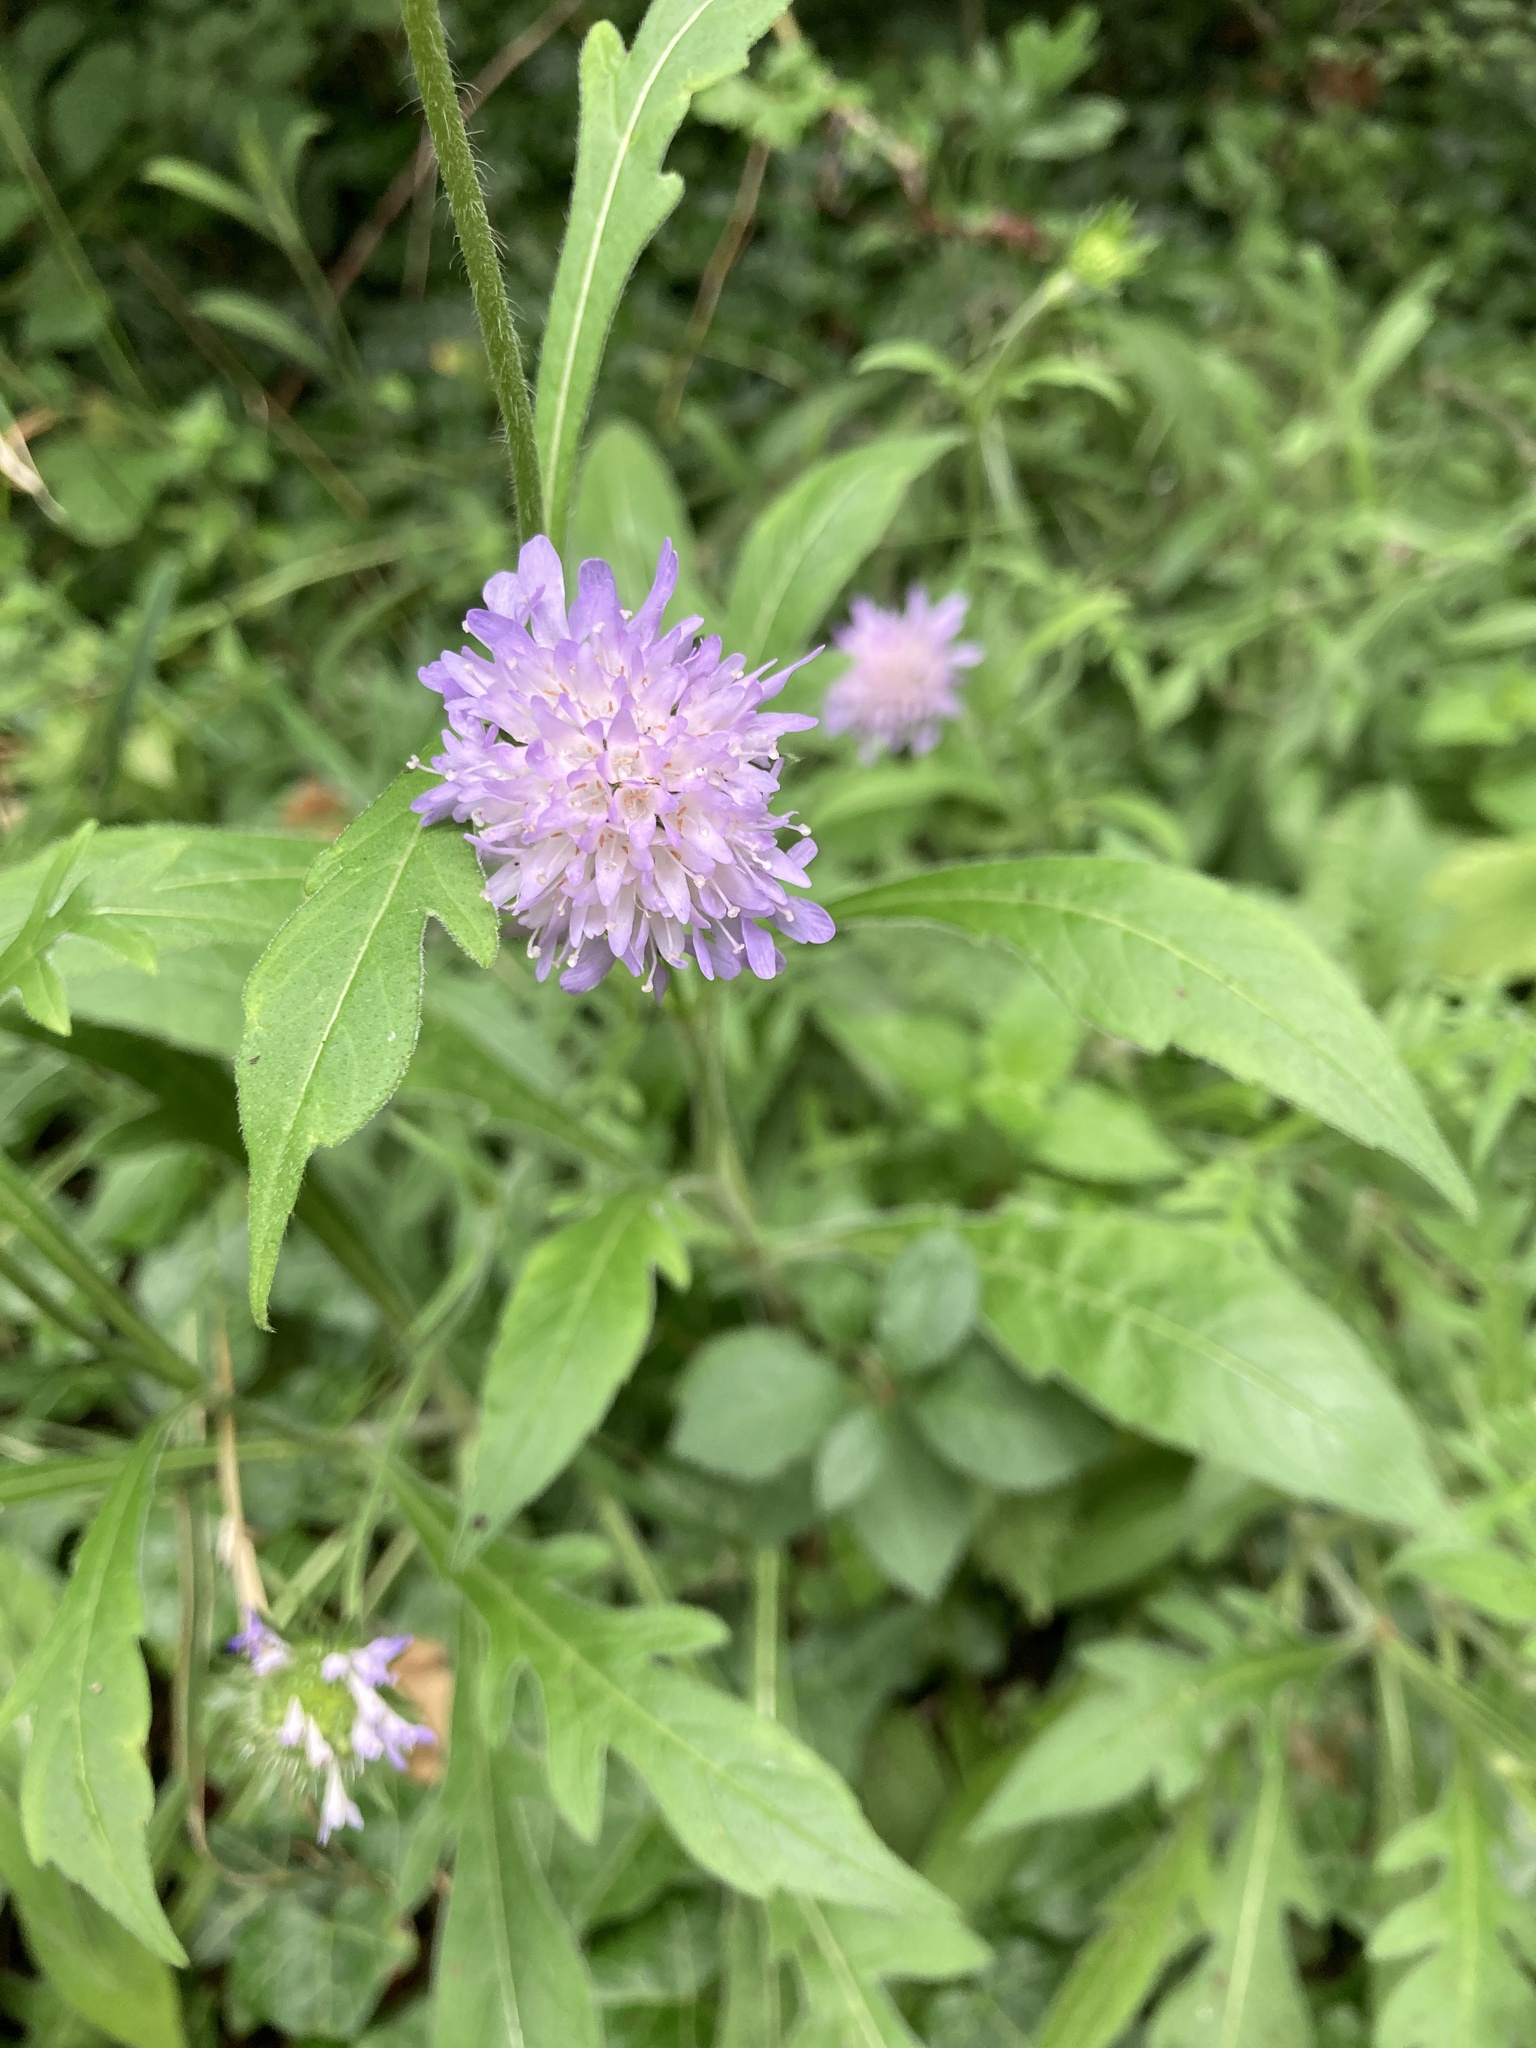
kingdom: Plantae
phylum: Tracheophyta
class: Magnoliopsida
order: Dipsacales
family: Caprifoliaceae
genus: Knautia
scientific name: Knautia arvensis
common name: Field scabiosa
